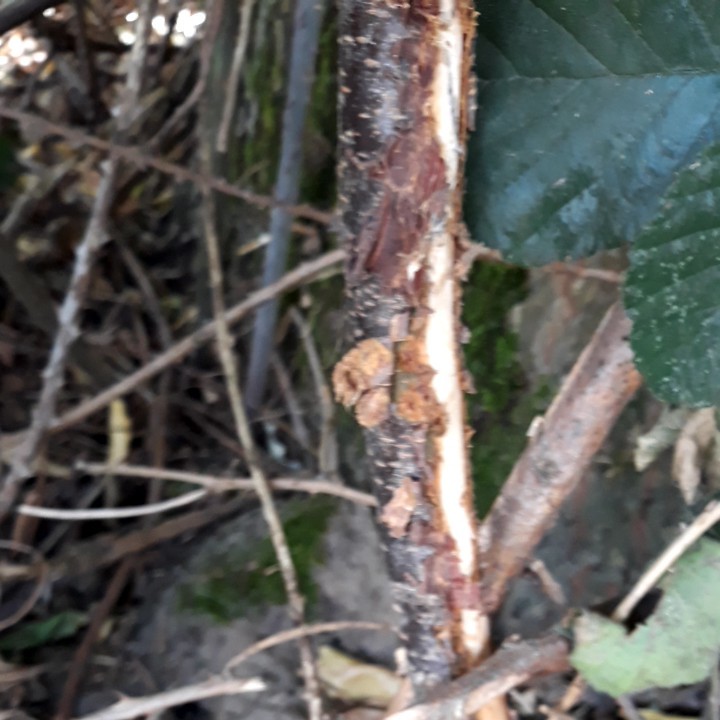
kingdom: Plantae
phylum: Tracheophyta
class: Magnoliopsida
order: Rosales
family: Rosaceae
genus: Prunus
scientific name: Prunus serotina
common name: Black cherry
